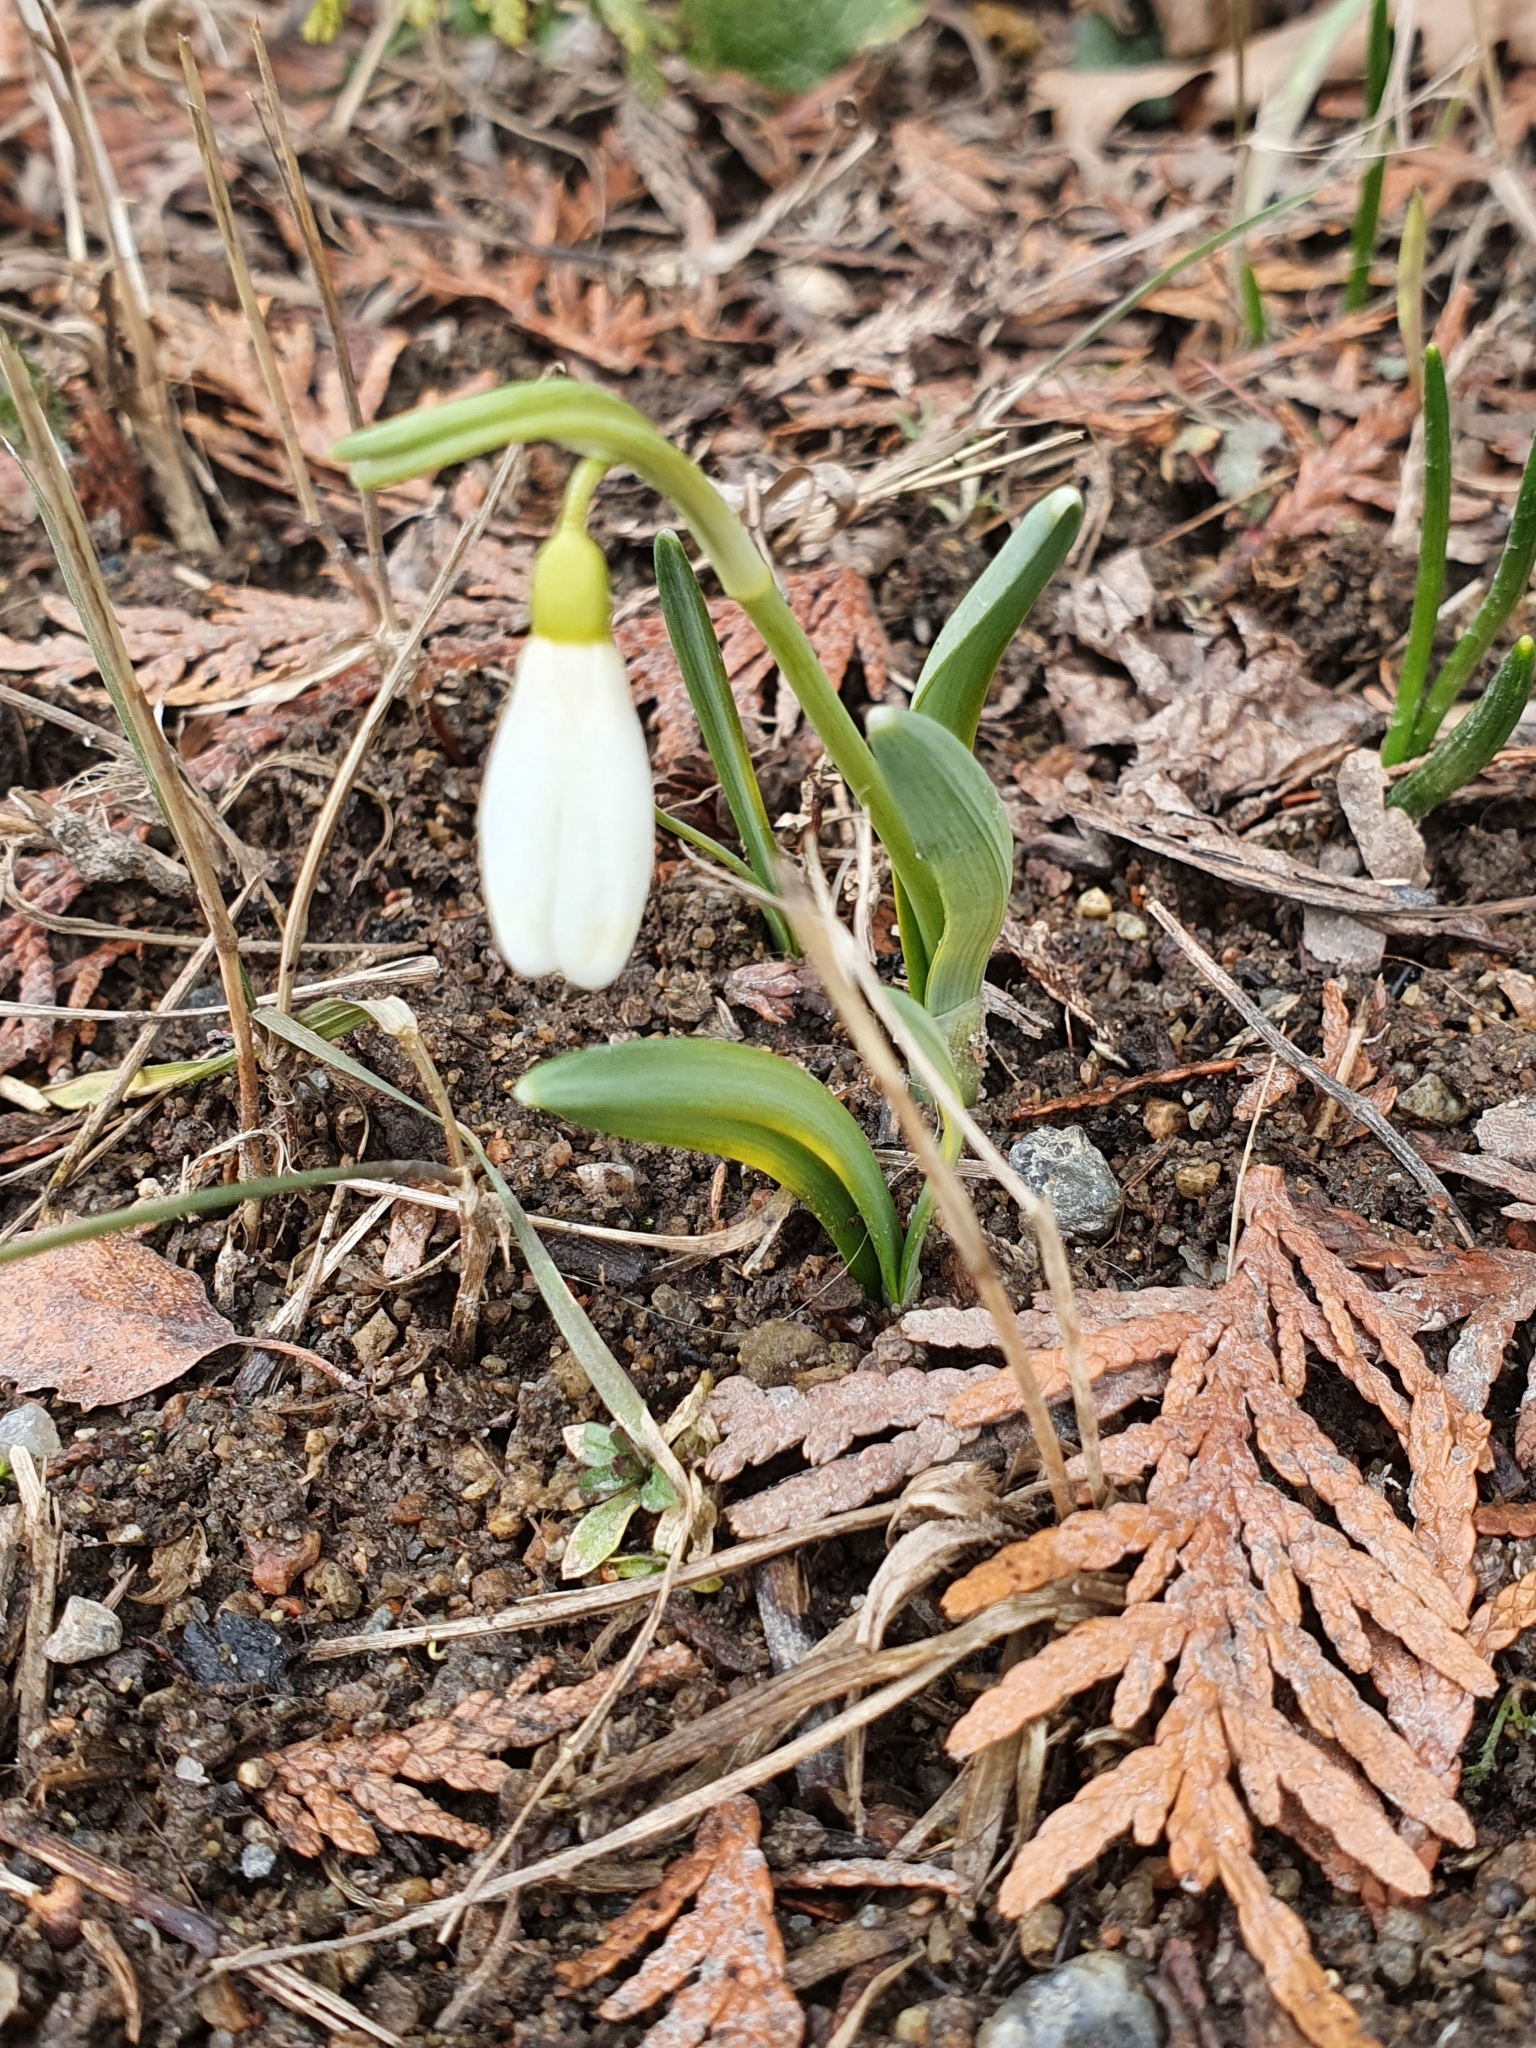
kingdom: Plantae
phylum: Tracheophyta
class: Liliopsida
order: Asparagales
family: Amaryllidaceae
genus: Galanthus
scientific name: Galanthus nivalis
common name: Snowdrop
